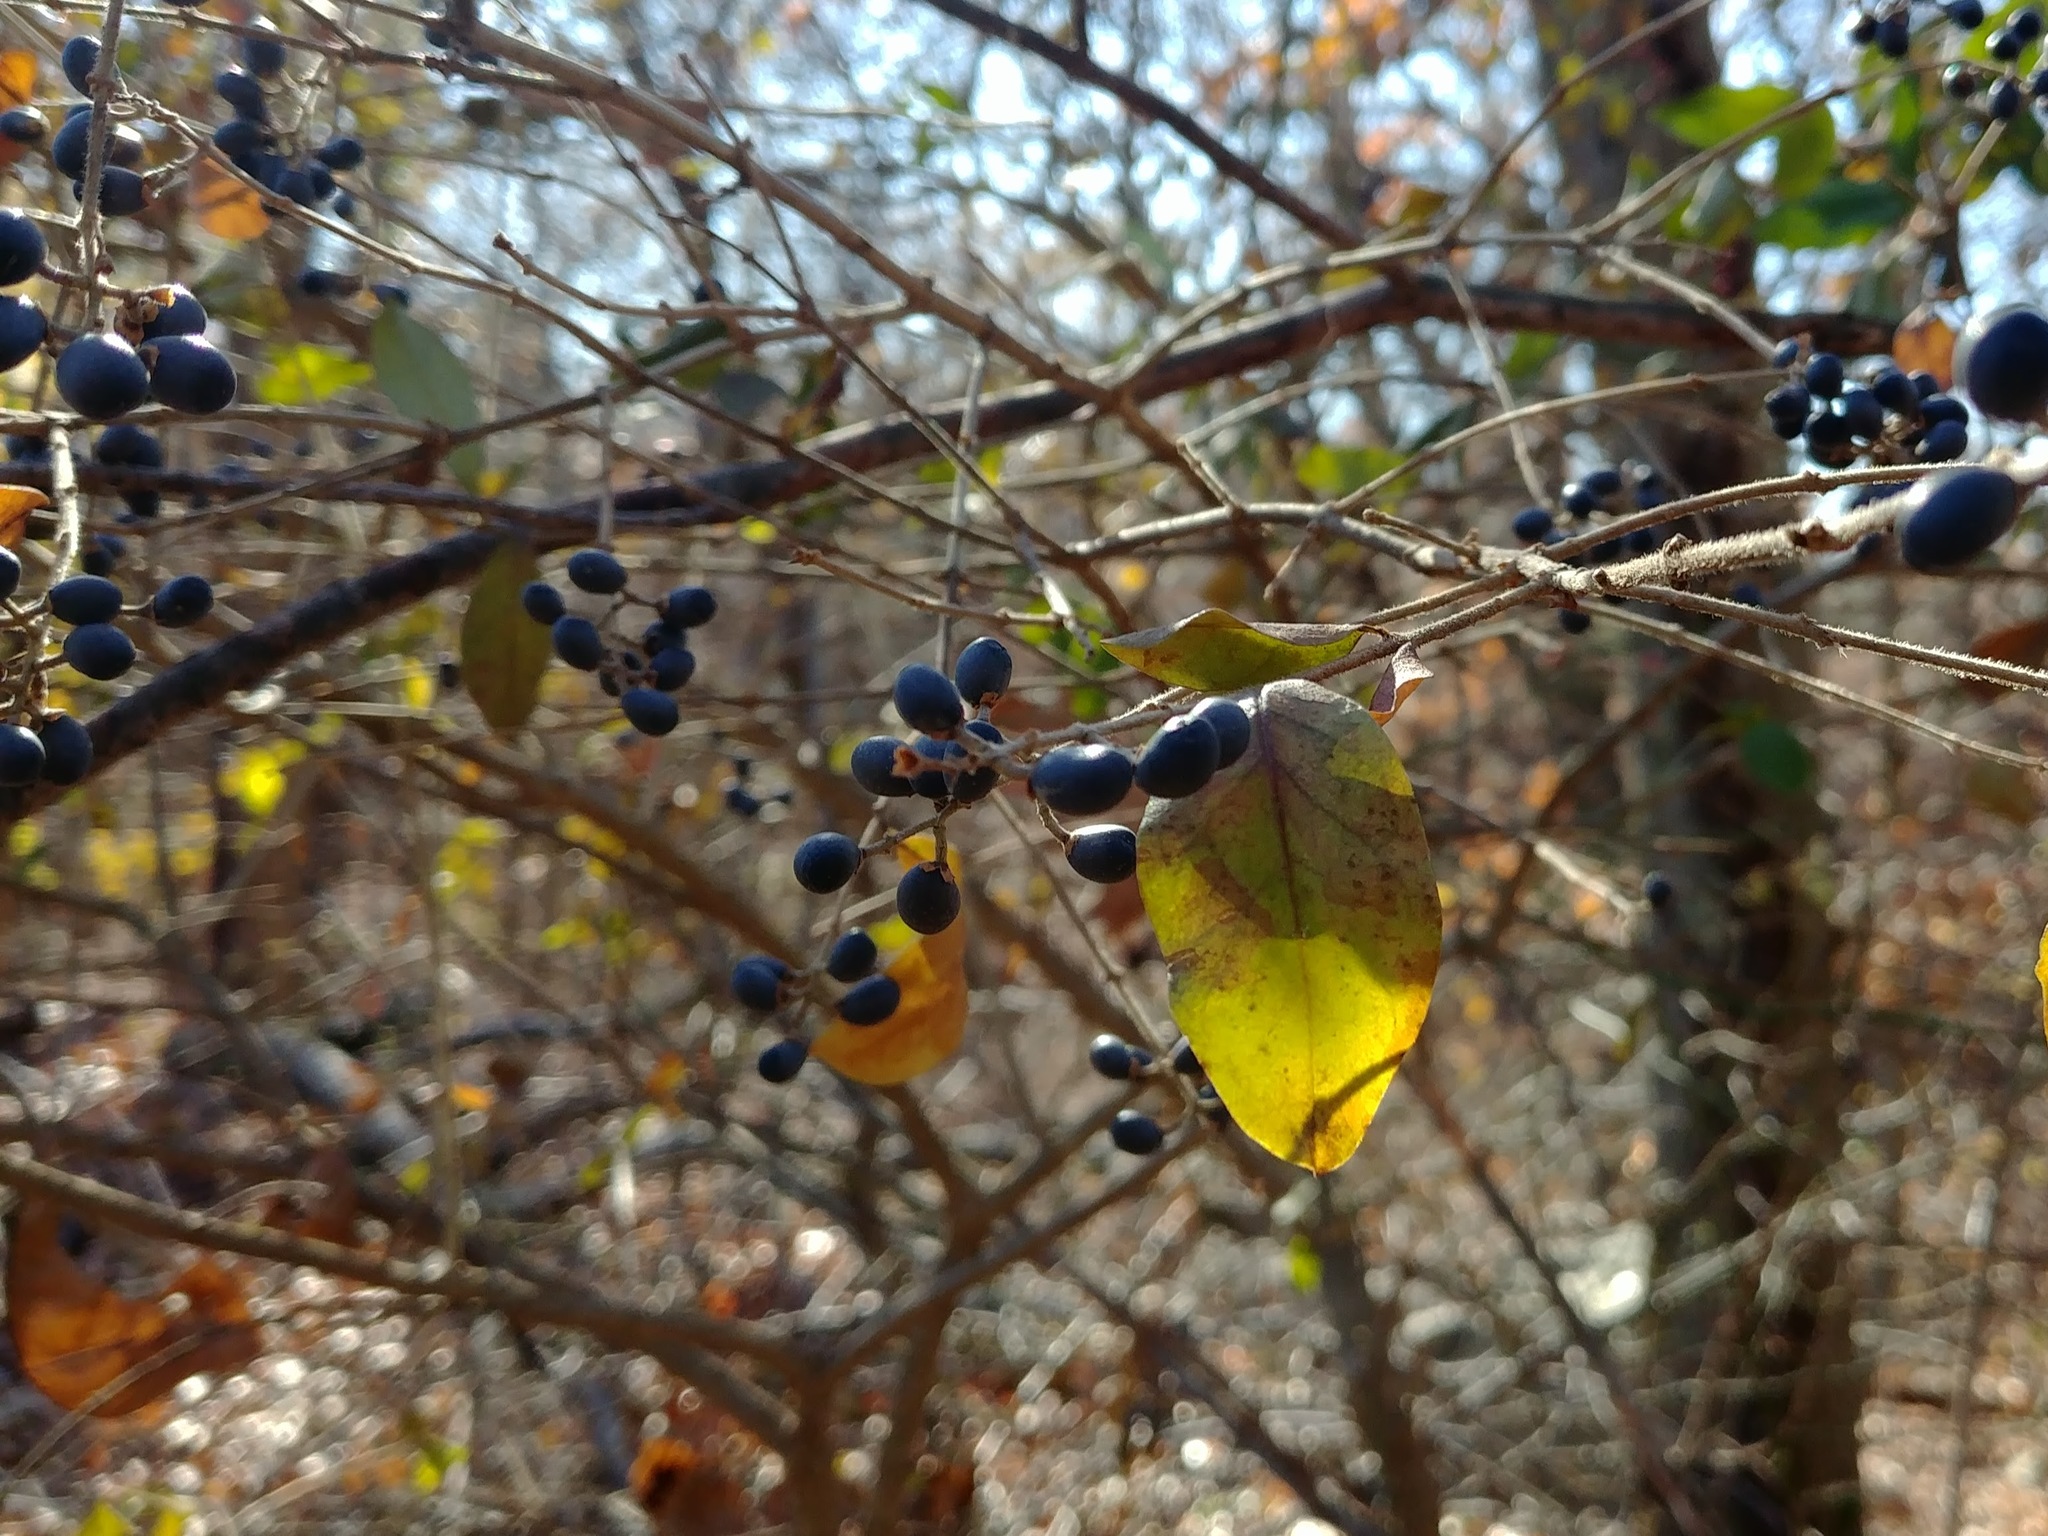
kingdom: Plantae
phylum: Tracheophyta
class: Magnoliopsida
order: Lamiales
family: Oleaceae
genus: Ligustrum
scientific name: Ligustrum obtusifolium
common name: Border privet
